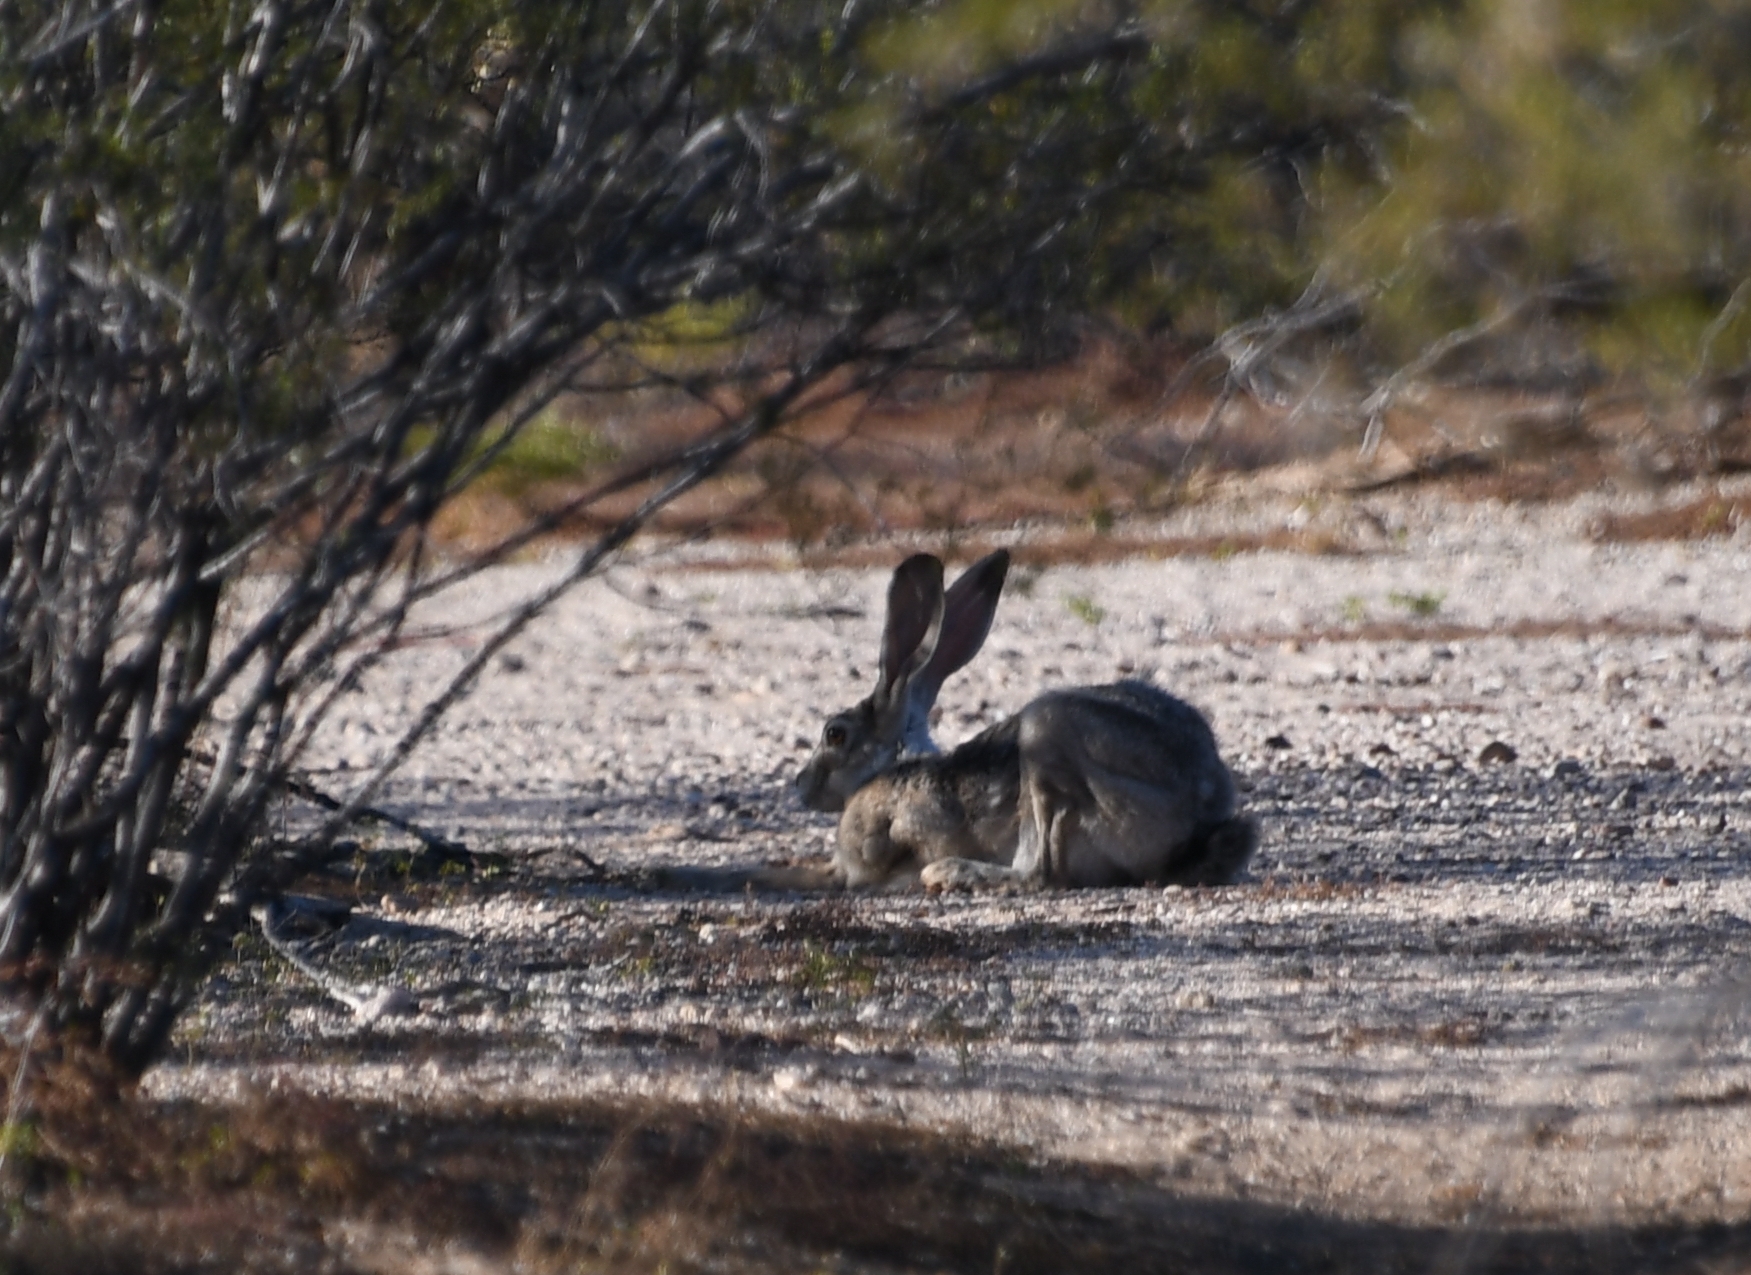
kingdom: Animalia
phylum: Chordata
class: Mammalia
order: Lagomorpha
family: Leporidae
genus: Lepus
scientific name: Lepus californicus
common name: Black-tailed jackrabbit
